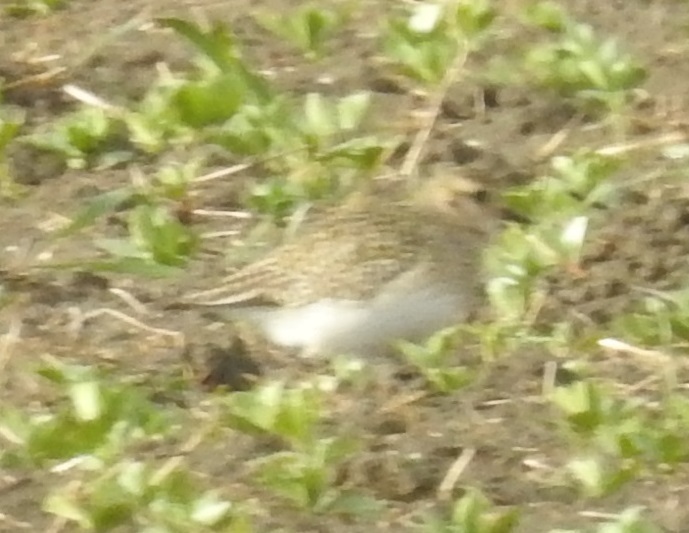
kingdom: Animalia
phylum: Chordata
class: Aves
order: Charadriiformes
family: Charadriidae
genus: Pluvialis
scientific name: Pluvialis apricaria
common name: European golden plover
